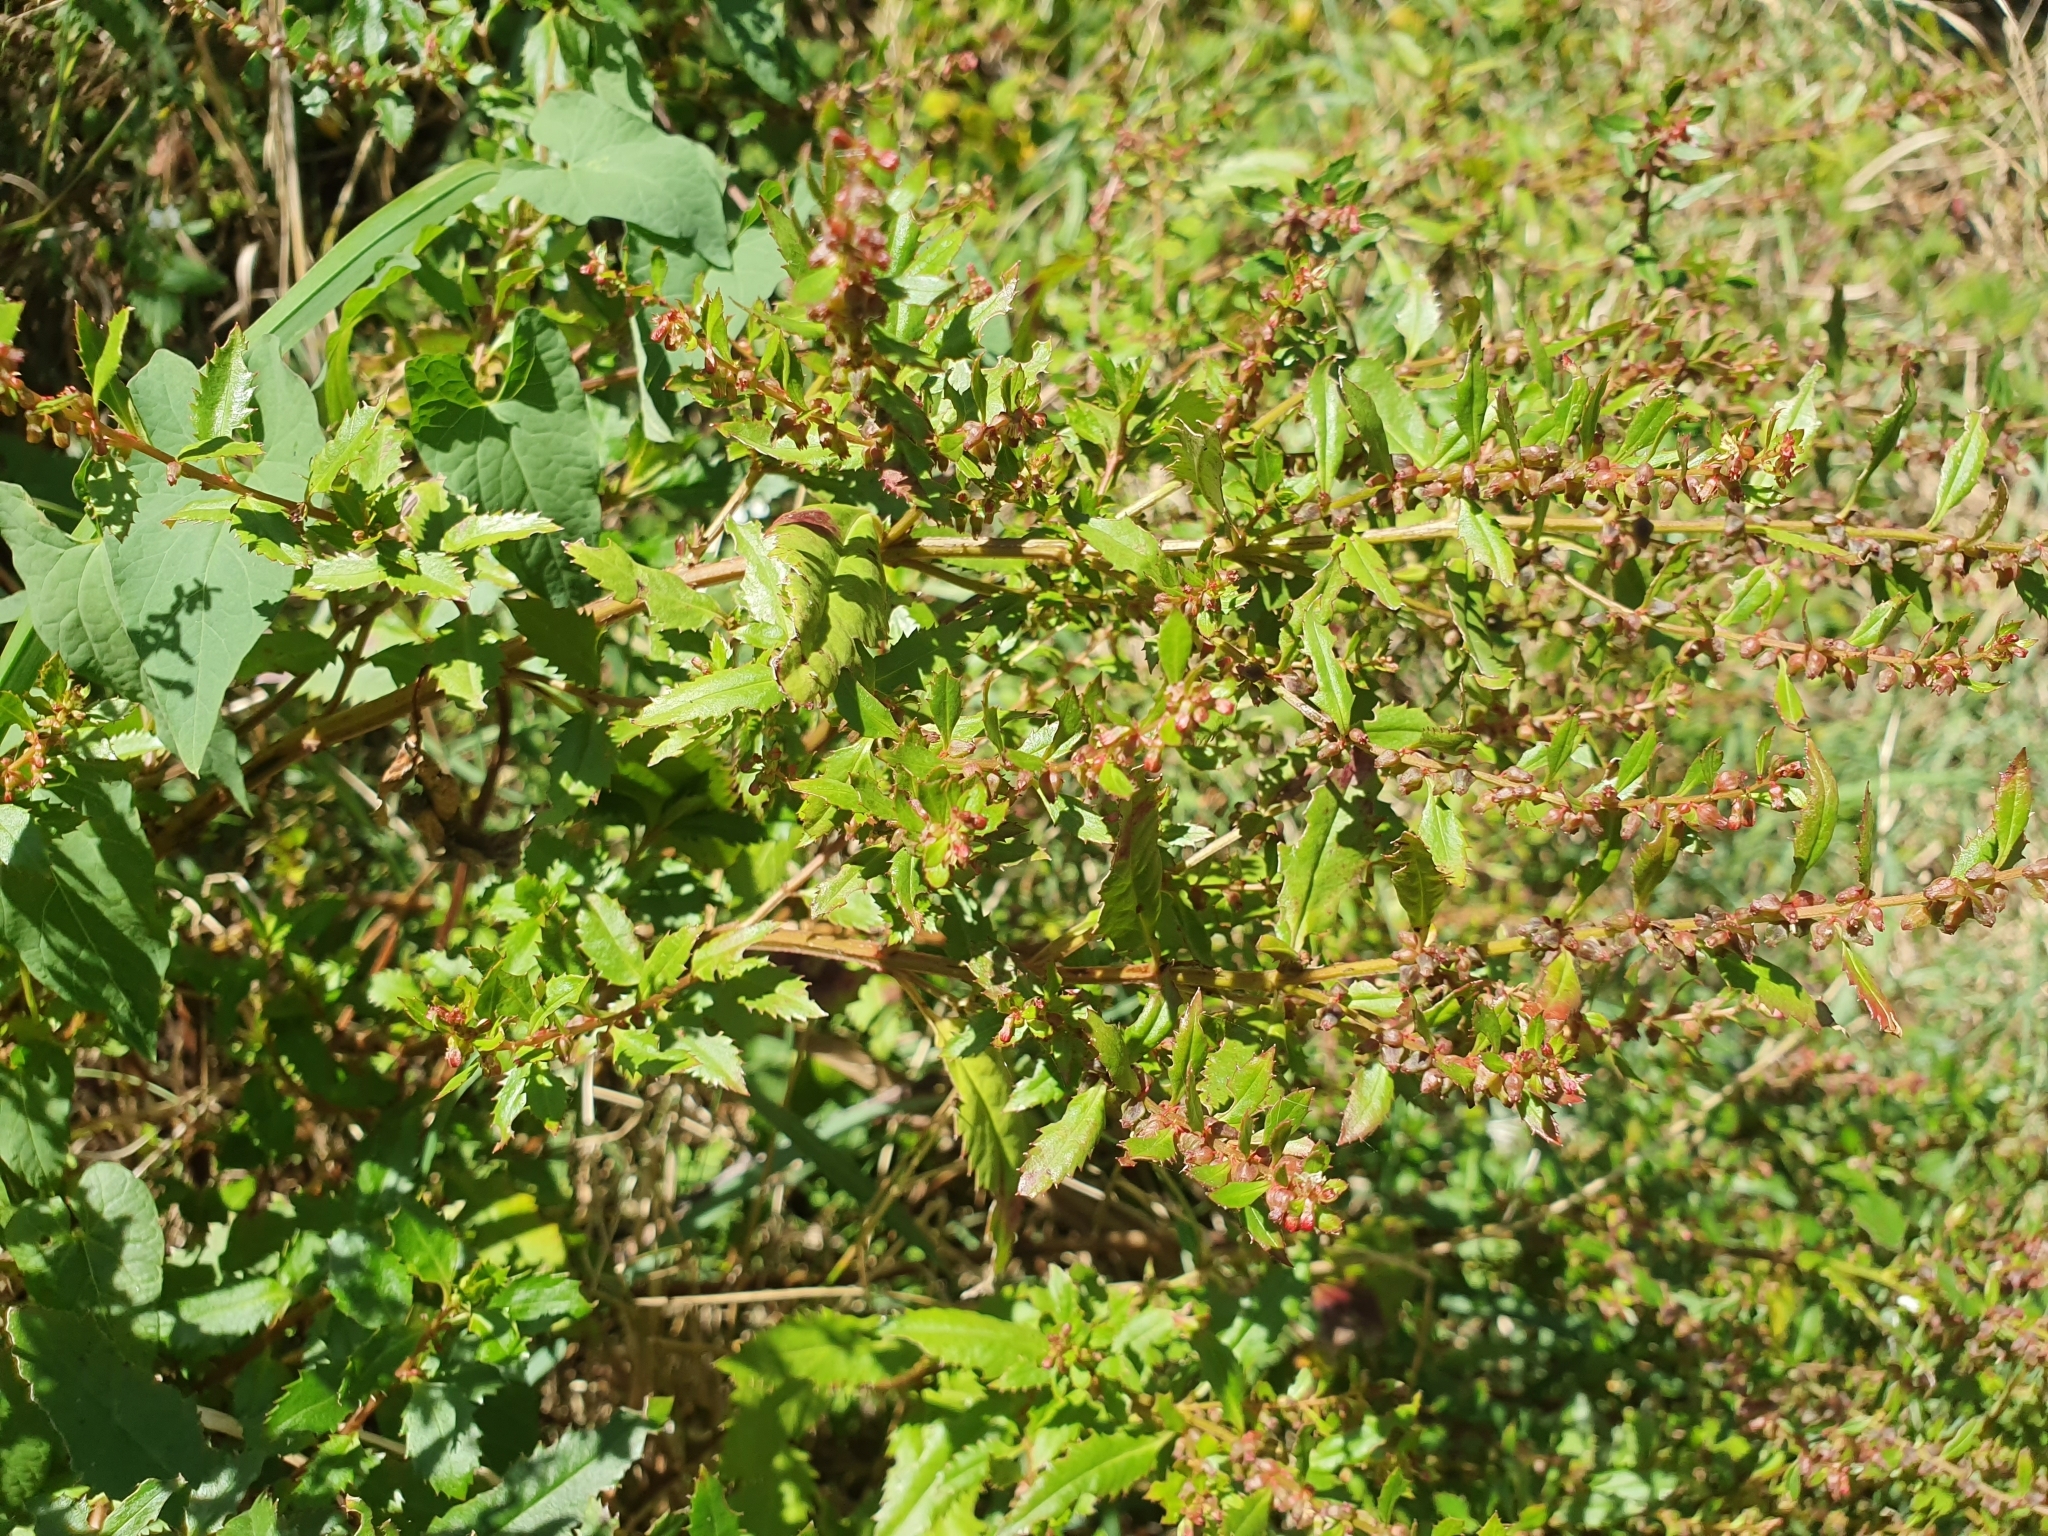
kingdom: Plantae
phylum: Tracheophyta
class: Magnoliopsida
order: Saxifragales
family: Haloragaceae
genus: Haloragis
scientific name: Haloragis erecta
